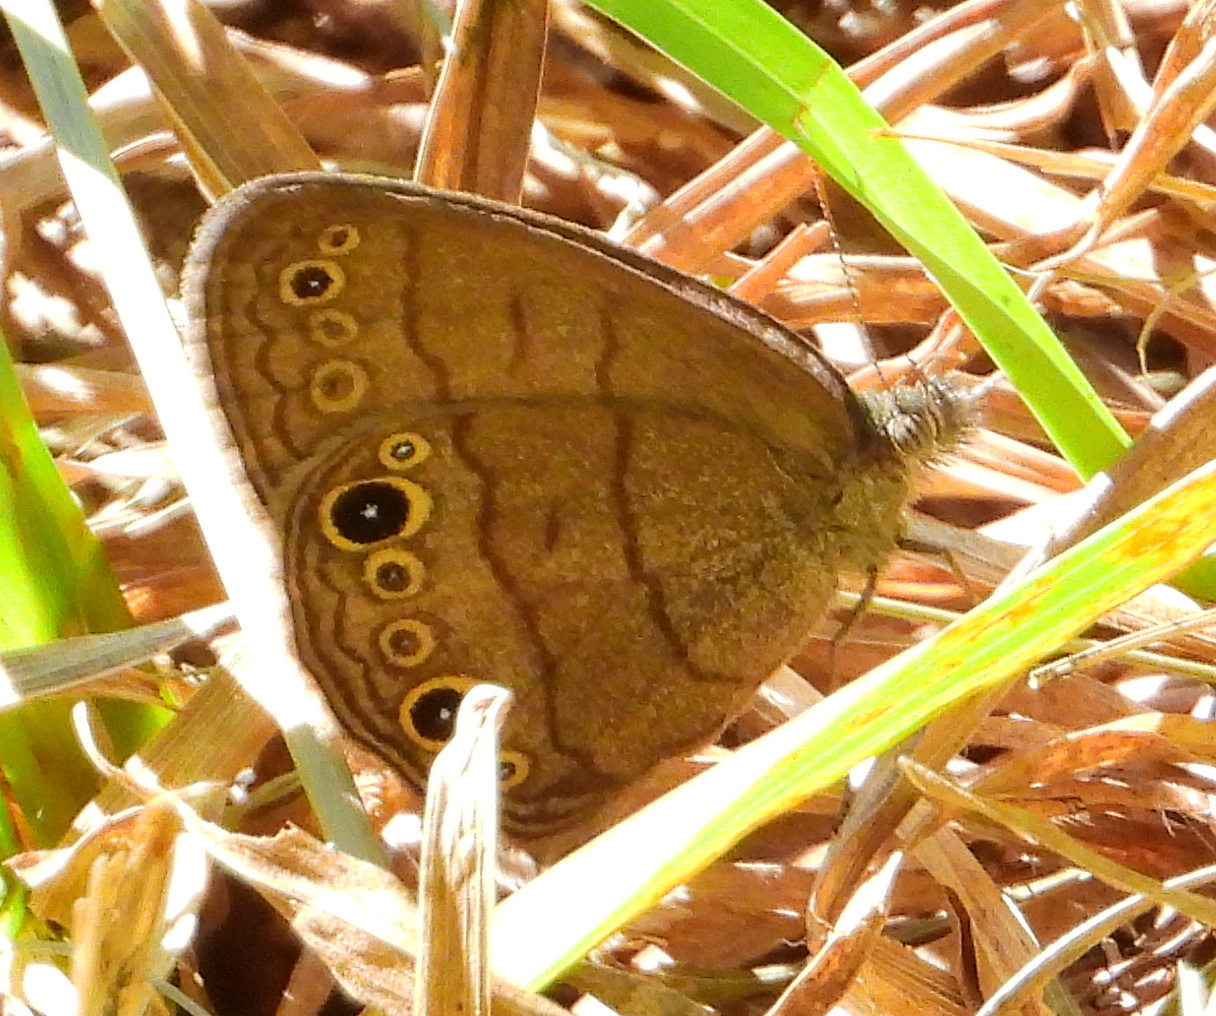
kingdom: Animalia
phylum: Arthropoda
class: Insecta
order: Lepidoptera
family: Nymphalidae
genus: Hermeuptychia
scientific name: Hermeuptychia hermes
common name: Hermes satyr
